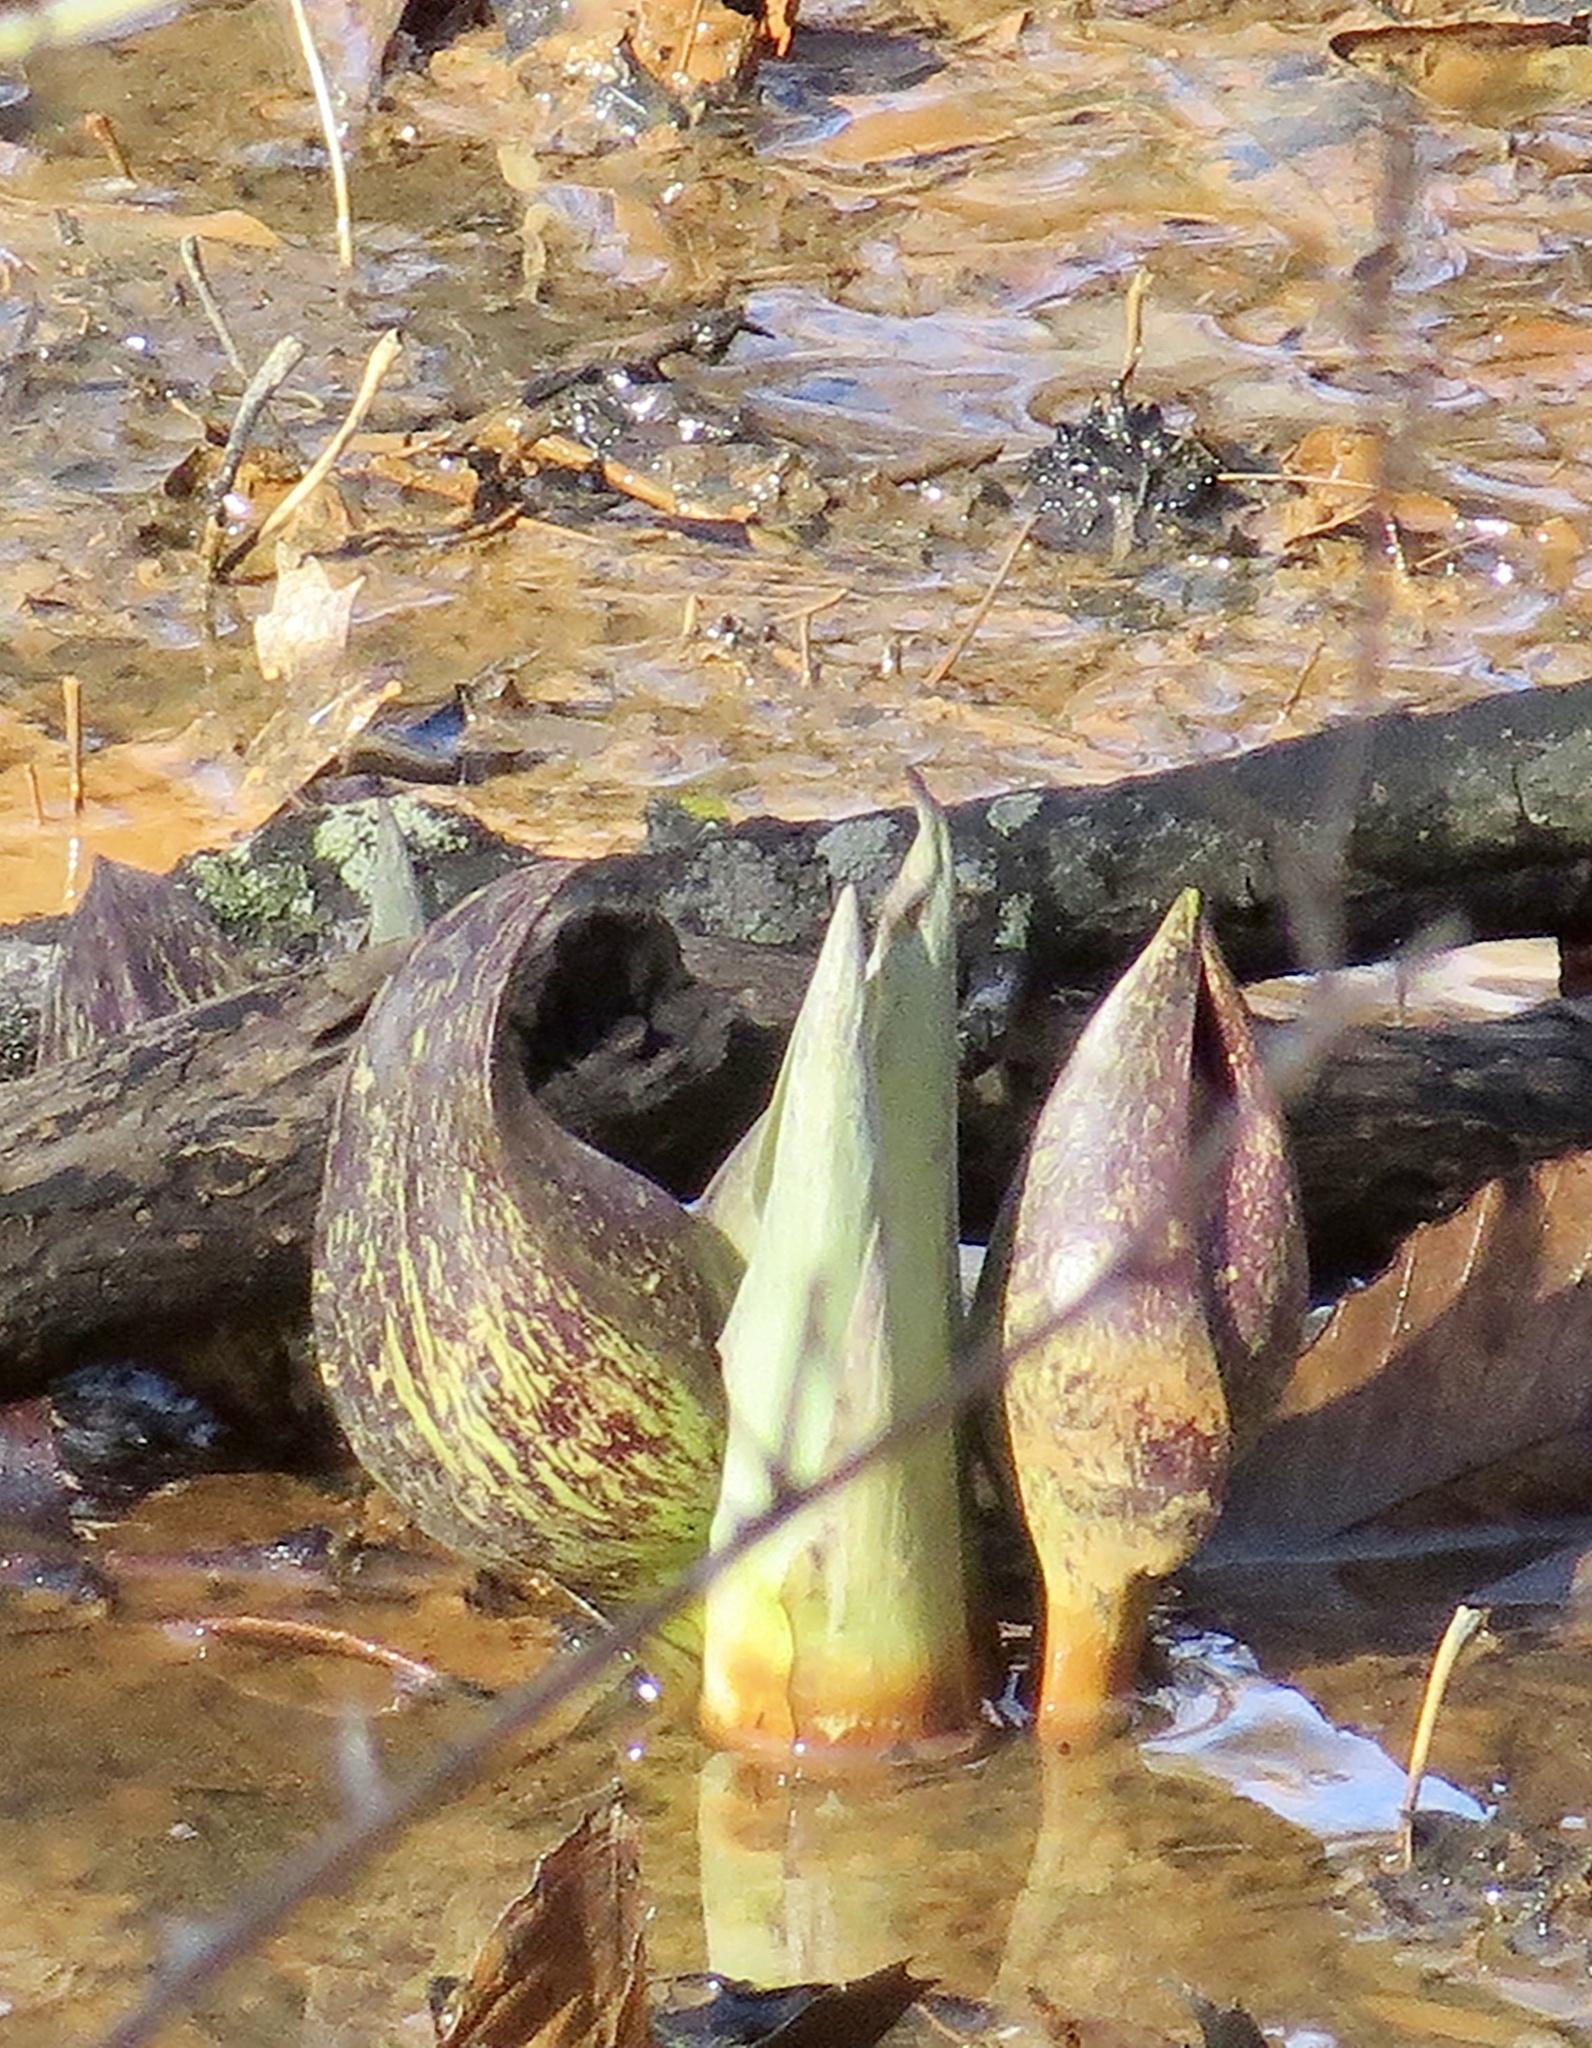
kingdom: Plantae
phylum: Tracheophyta
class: Liliopsida
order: Alismatales
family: Araceae
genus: Symplocarpus
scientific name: Symplocarpus foetidus
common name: Eastern skunk cabbage
